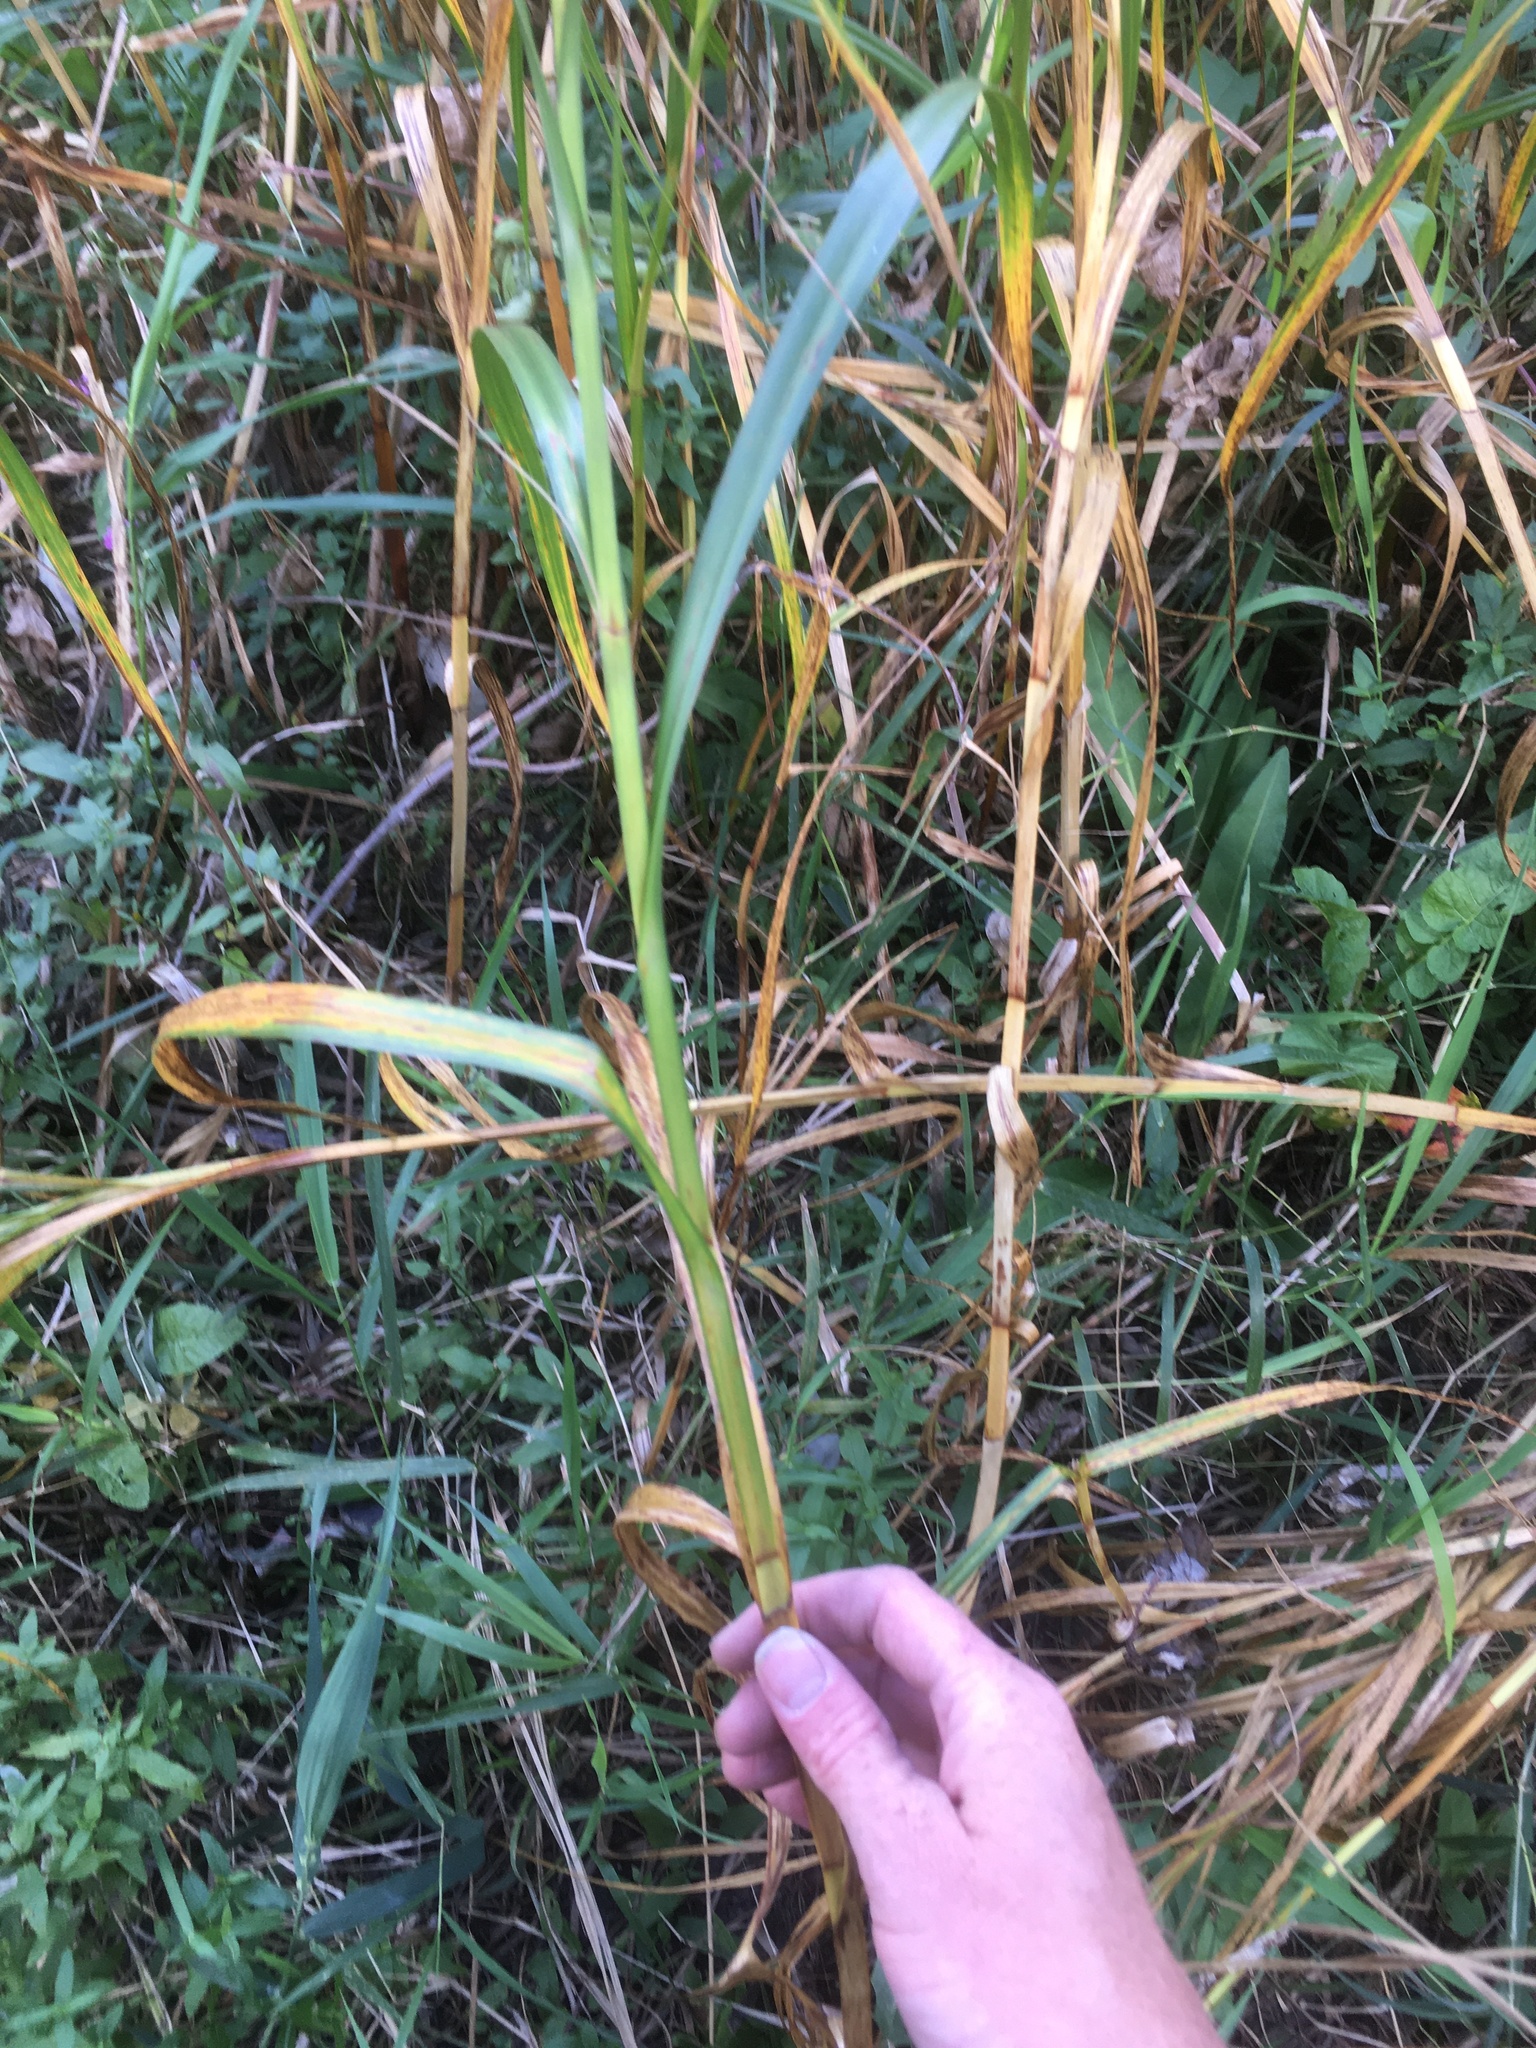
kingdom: Plantae
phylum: Tracheophyta
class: Liliopsida
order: Poales
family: Cyperaceae
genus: Bolboschoenus
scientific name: Bolboschoenus fluviatilis
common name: River bulrush
